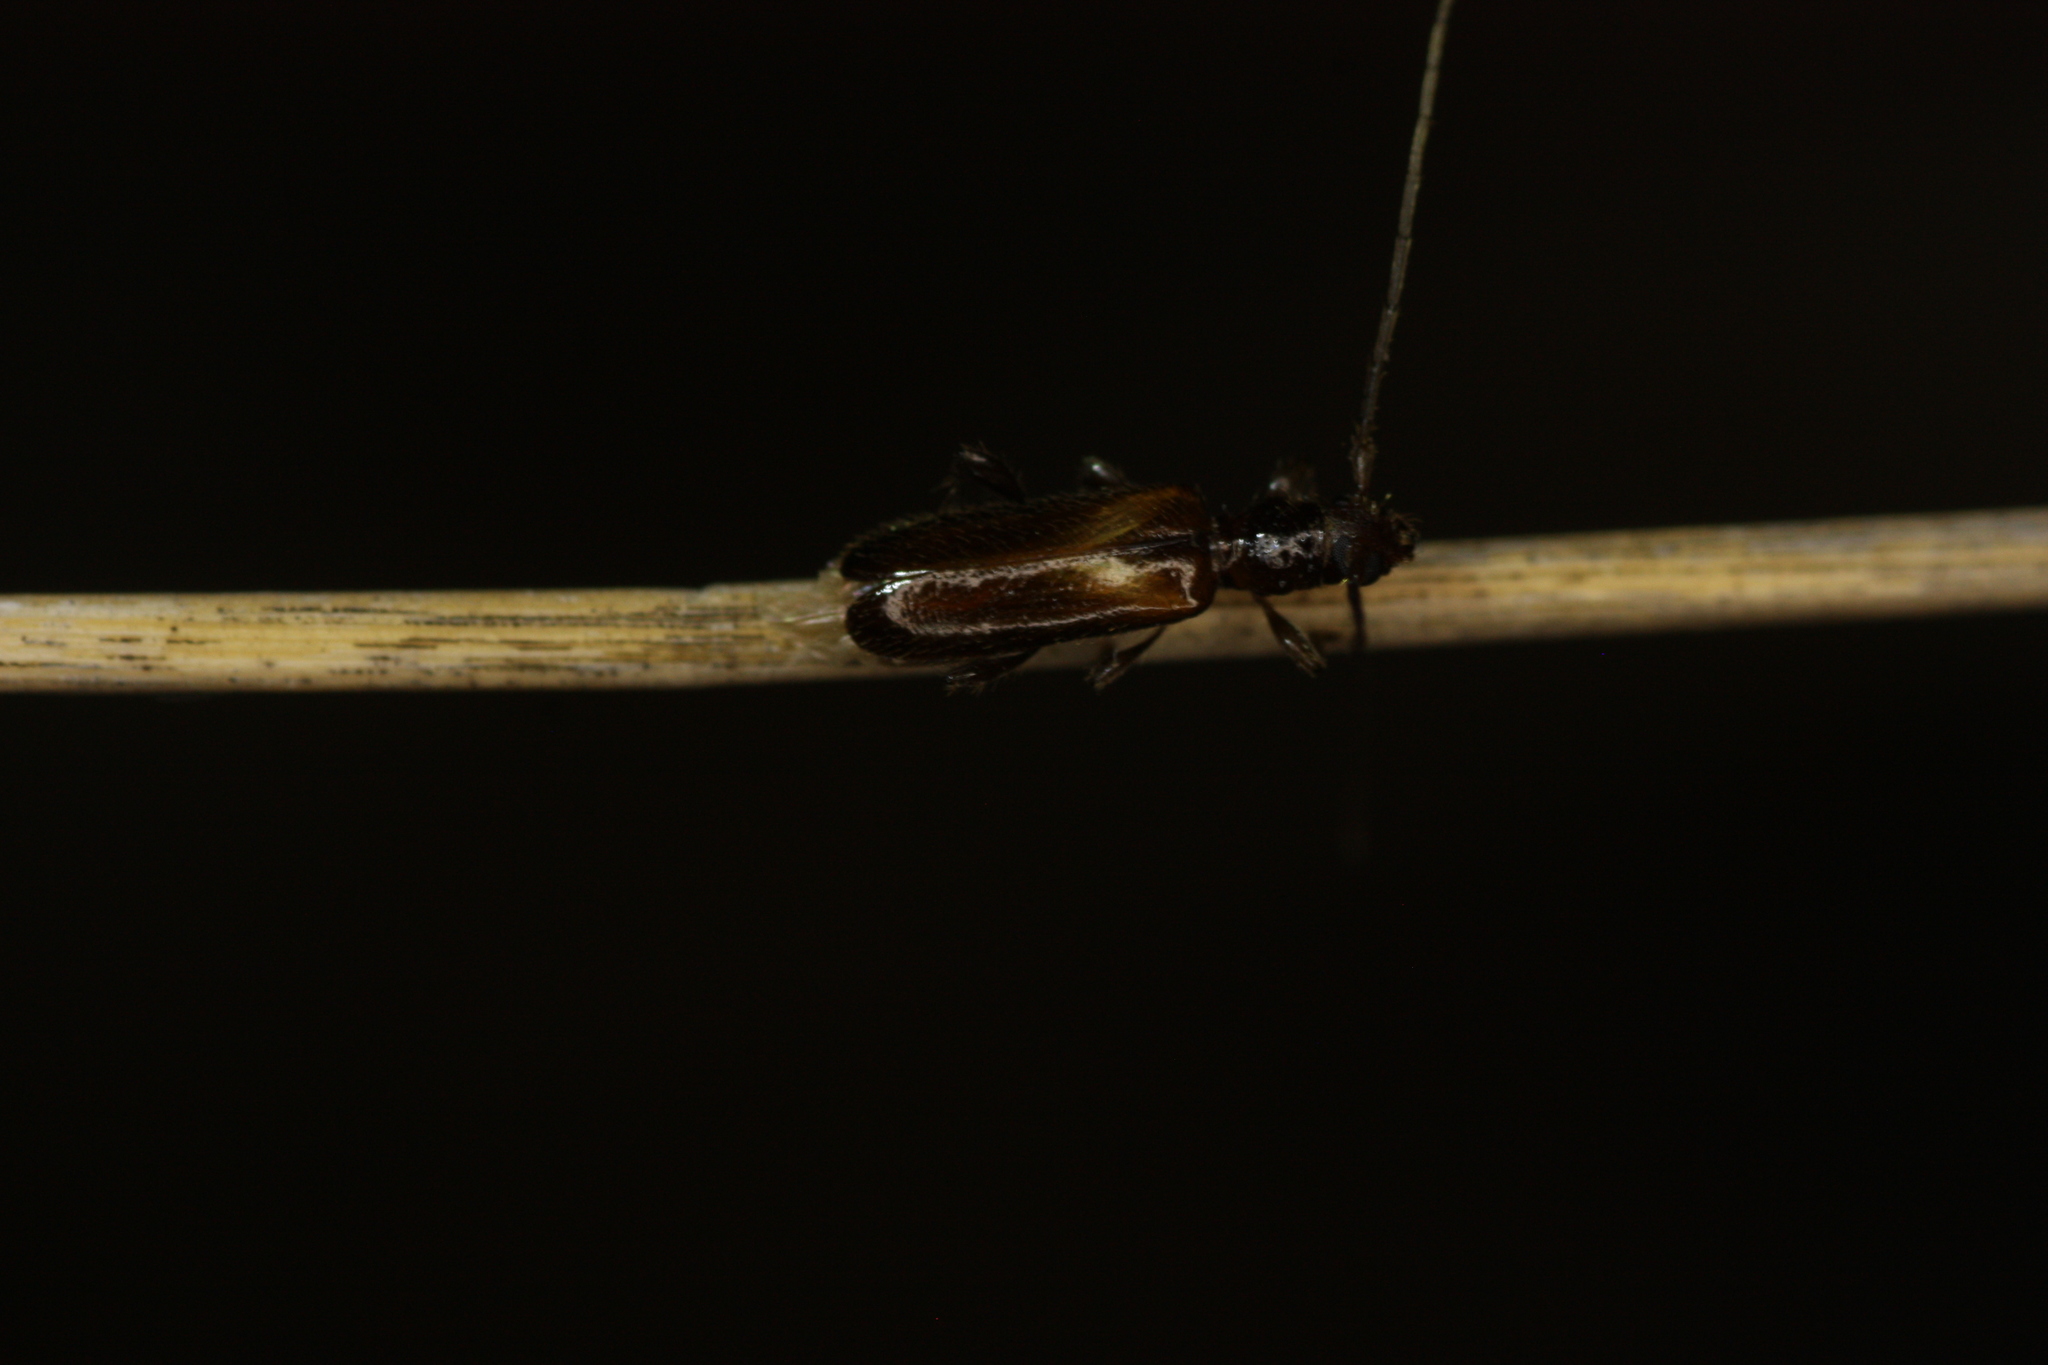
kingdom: Animalia
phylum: Arthropoda
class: Insecta
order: Coleoptera
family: Cerambycidae
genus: Obrium
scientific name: Obrium constricticolle
